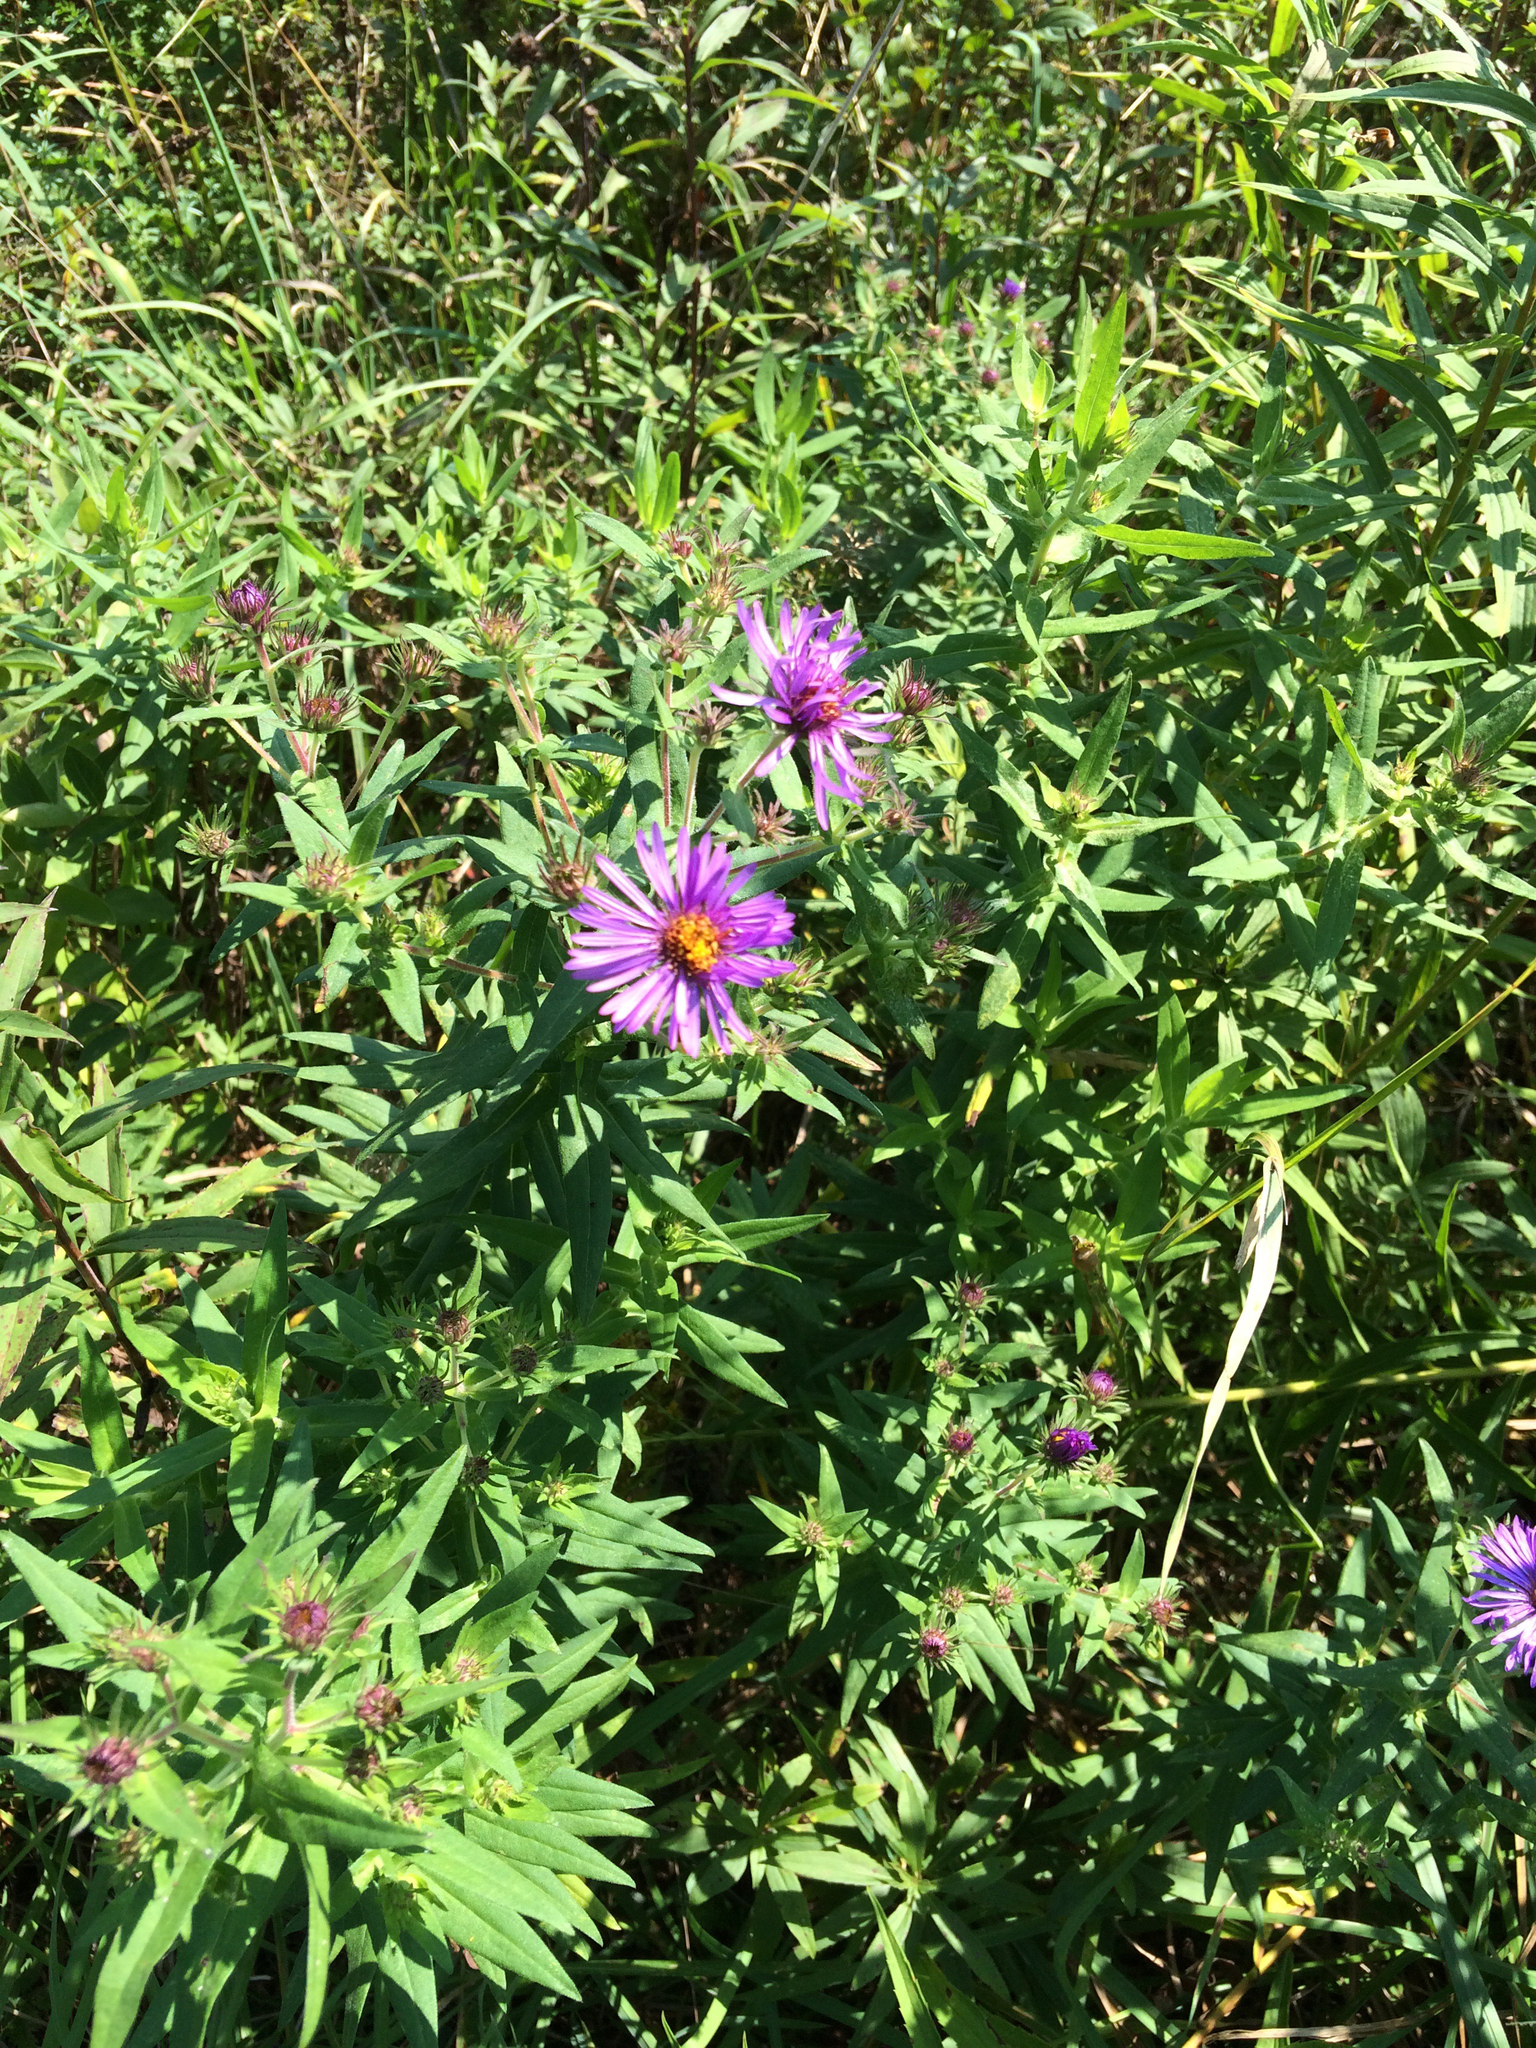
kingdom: Plantae
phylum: Tracheophyta
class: Magnoliopsida
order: Asterales
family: Asteraceae
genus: Symphyotrichum
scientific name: Symphyotrichum novae-angliae
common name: Michaelmas daisy
